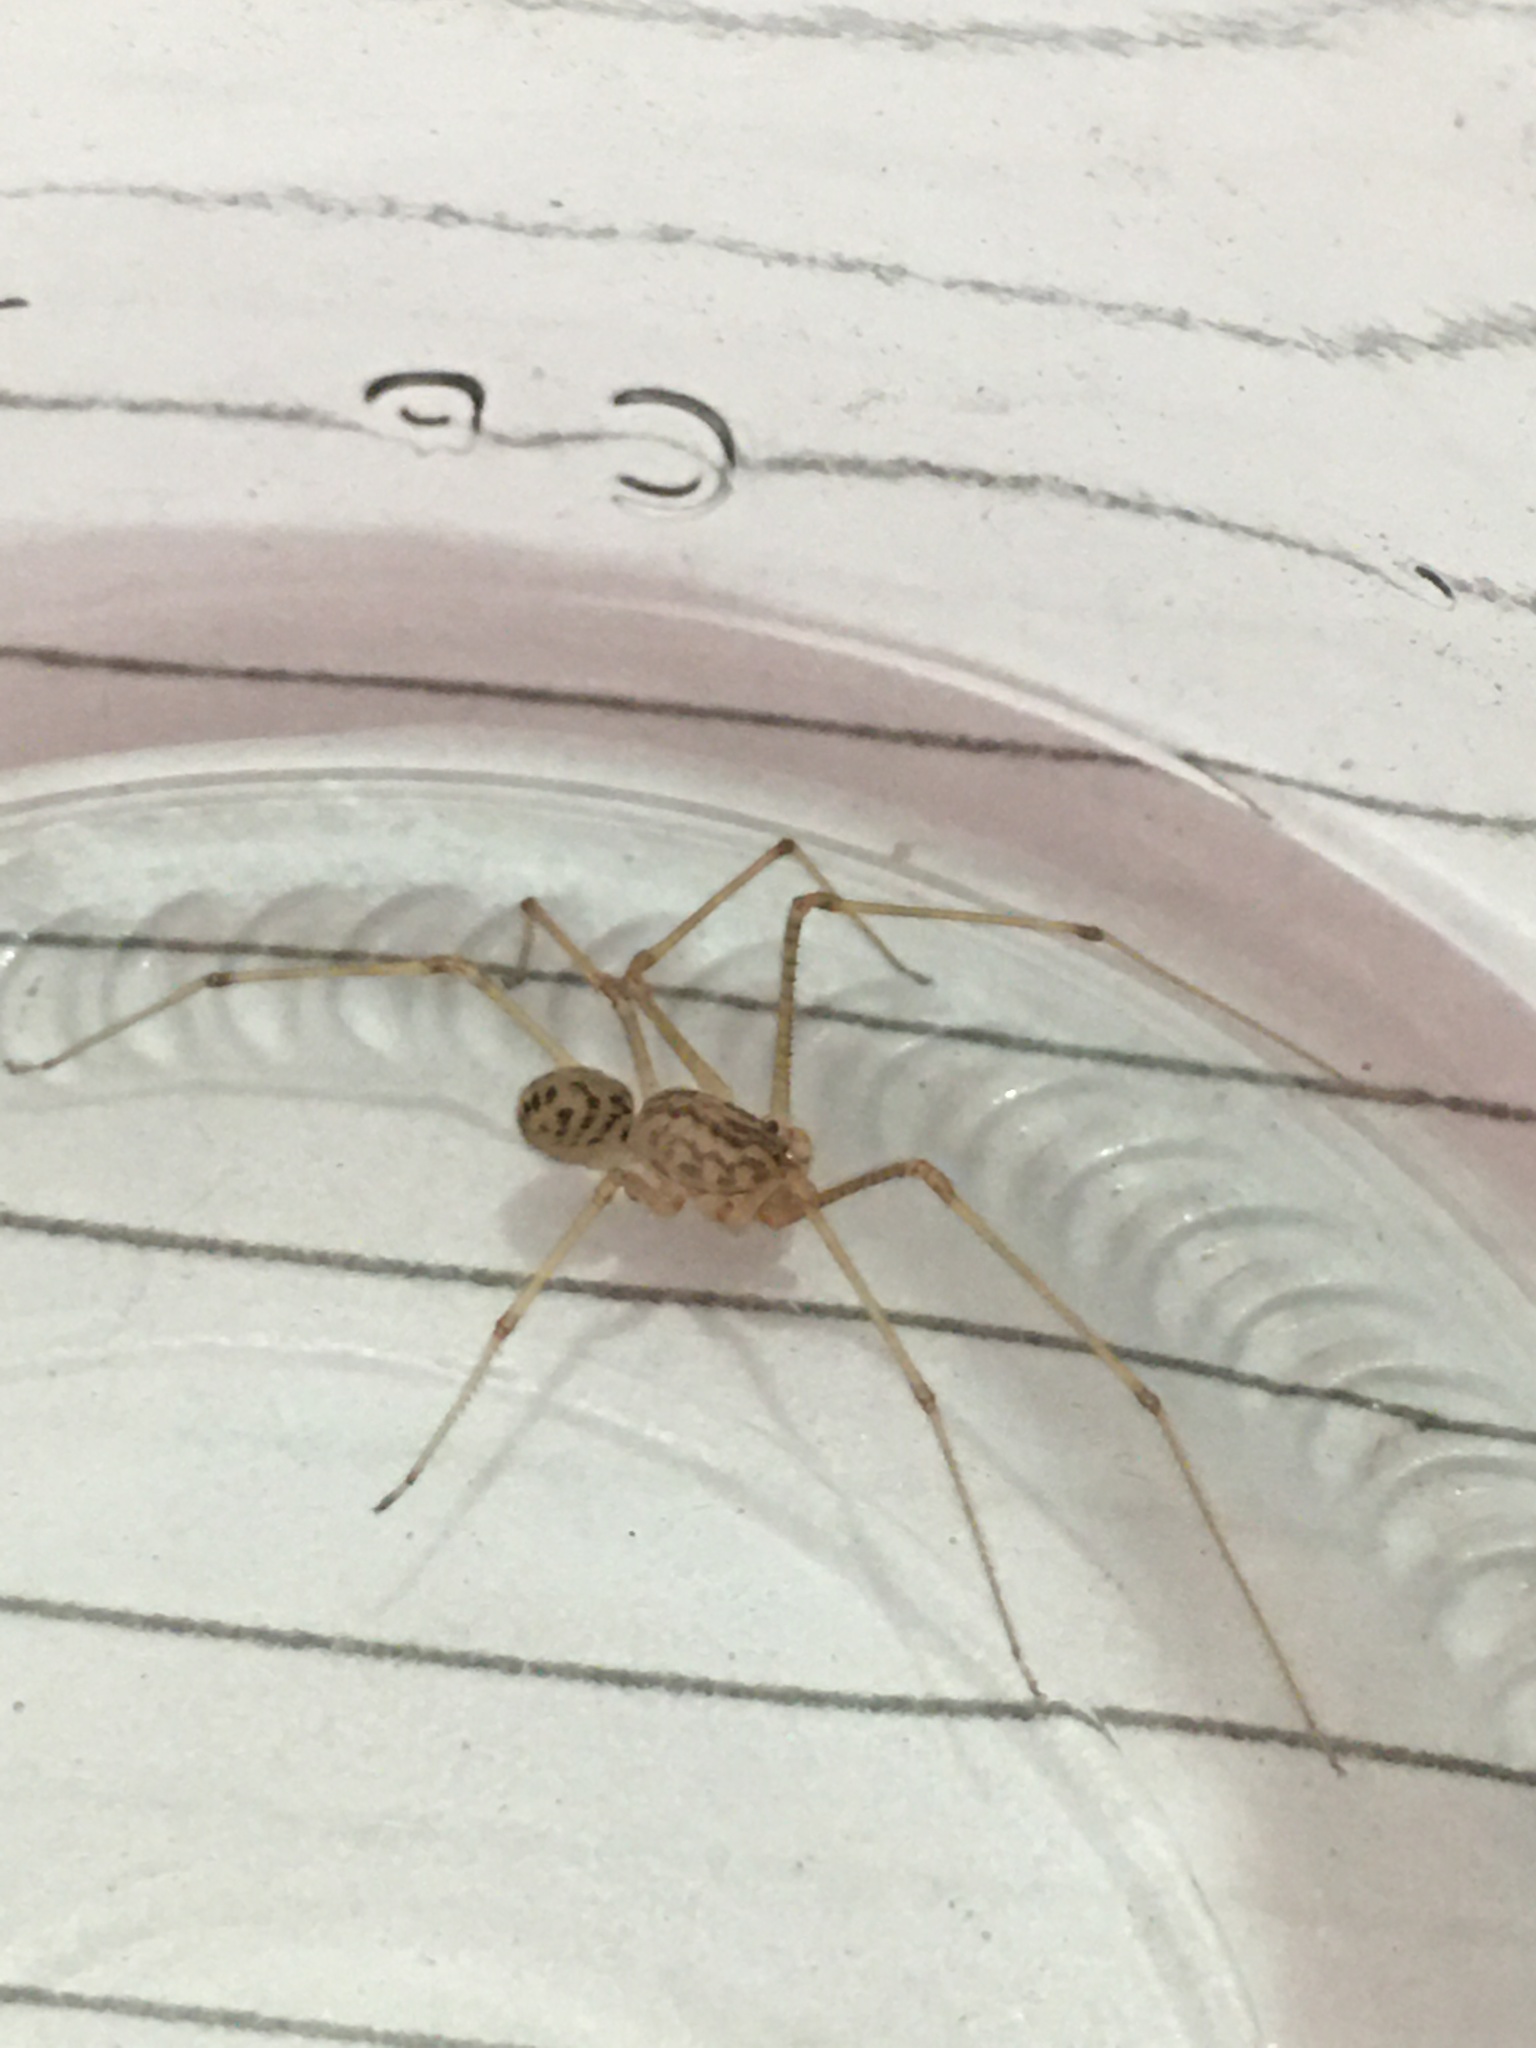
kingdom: Animalia
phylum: Arthropoda
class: Arachnida
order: Araneae
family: Scytodidae
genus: Scytodes
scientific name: Scytodes univittata
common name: Spitting spider
